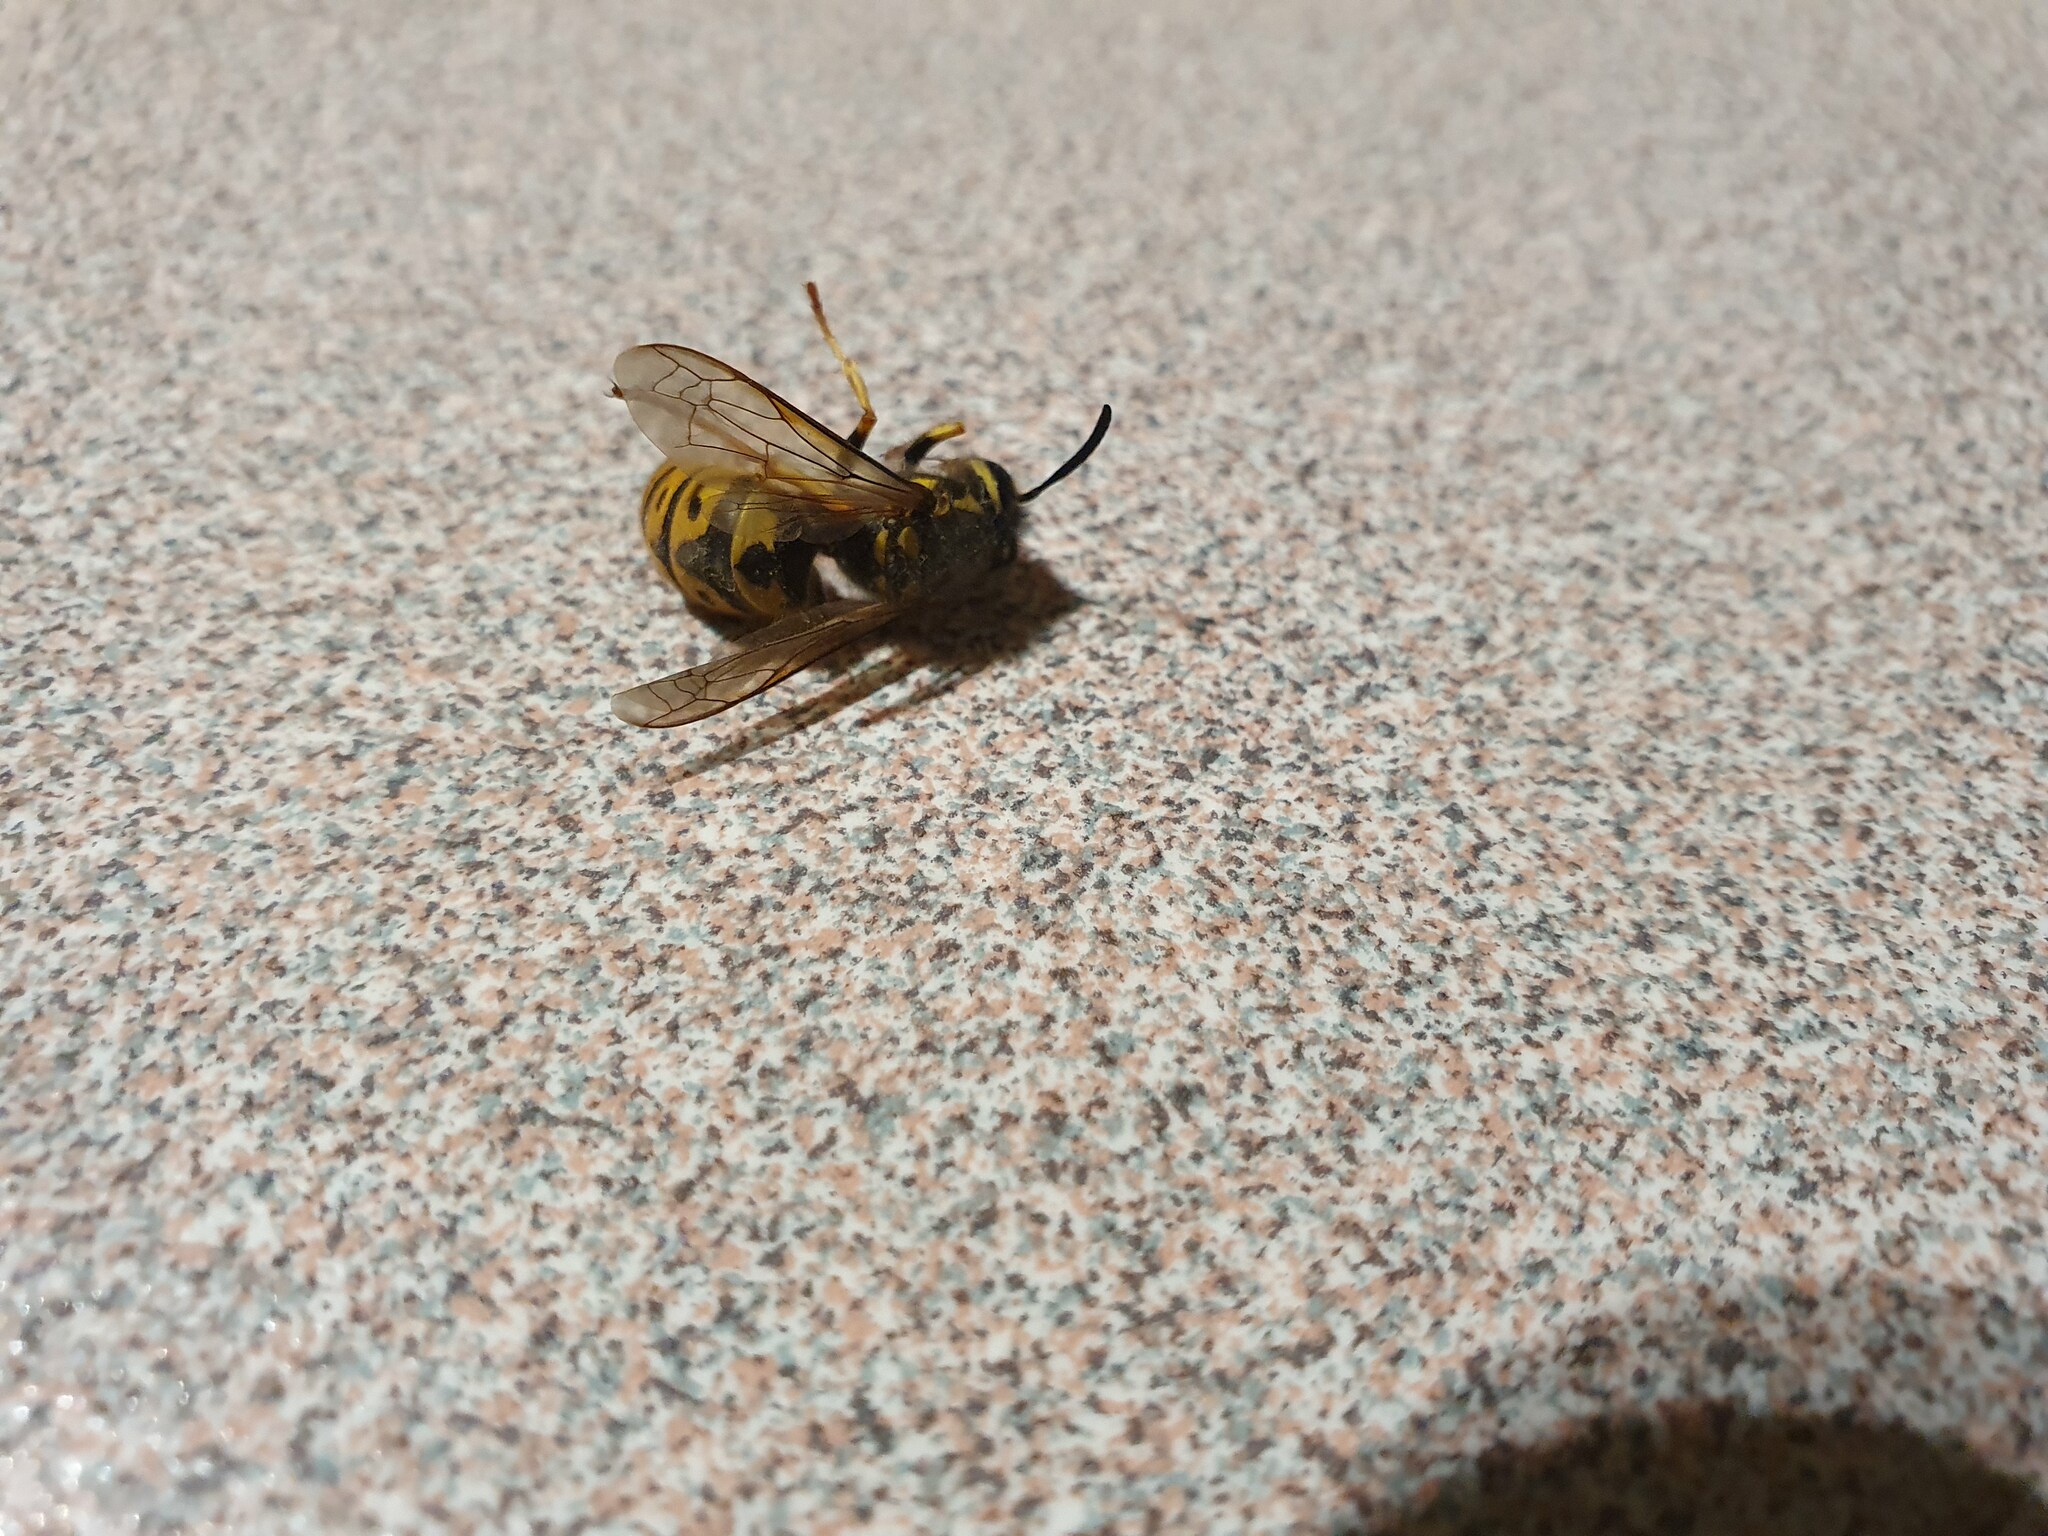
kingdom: Animalia
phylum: Arthropoda
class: Insecta
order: Hymenoptera
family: Vespidae
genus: Vespula
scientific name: Vespula germanica
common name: German wasp
